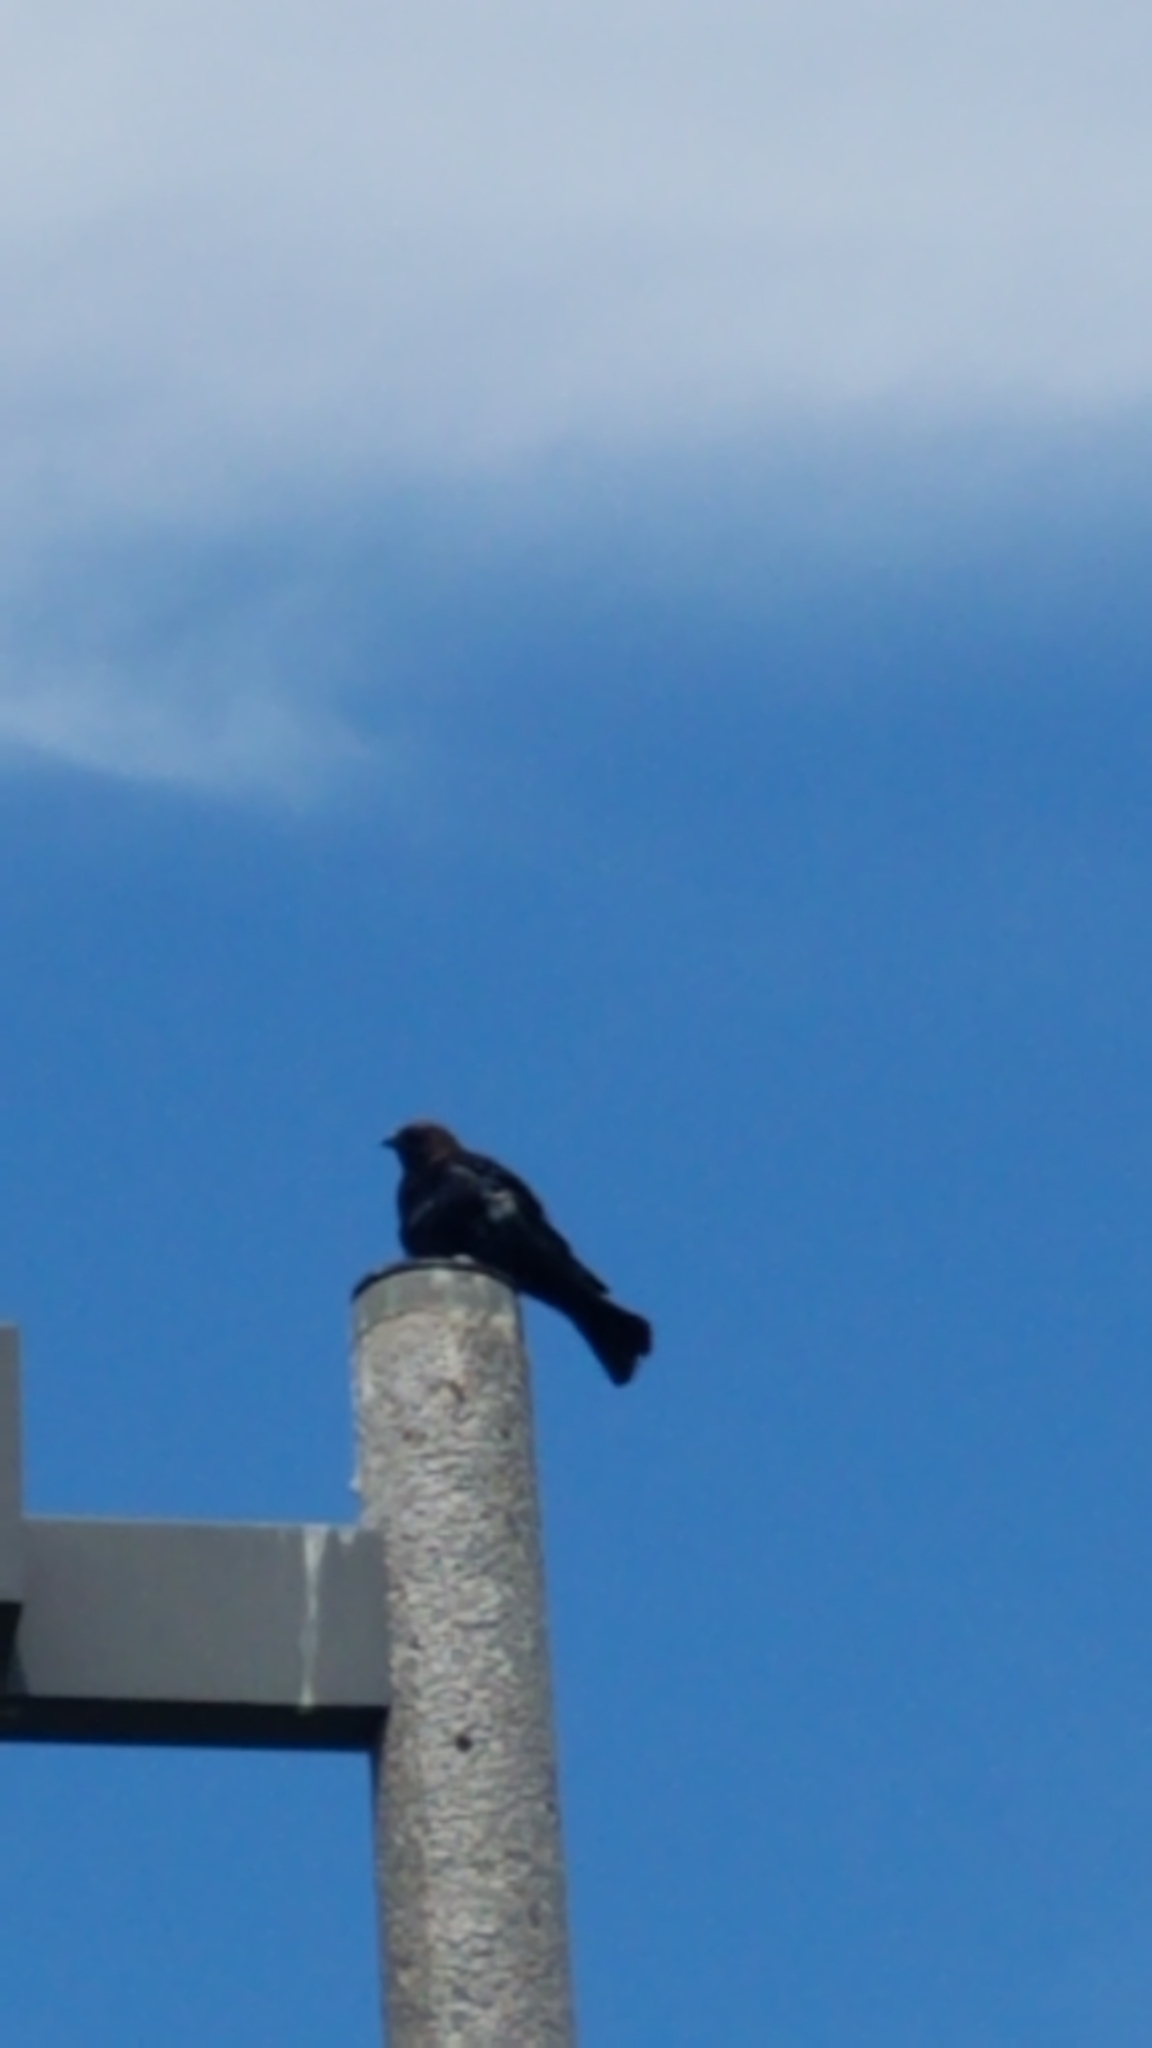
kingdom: Animalia
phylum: Chordata
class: Aves
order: Passeriformes
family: Icteridae
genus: Molothrus
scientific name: Molothrus ater
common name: Brown-headed cowbird
